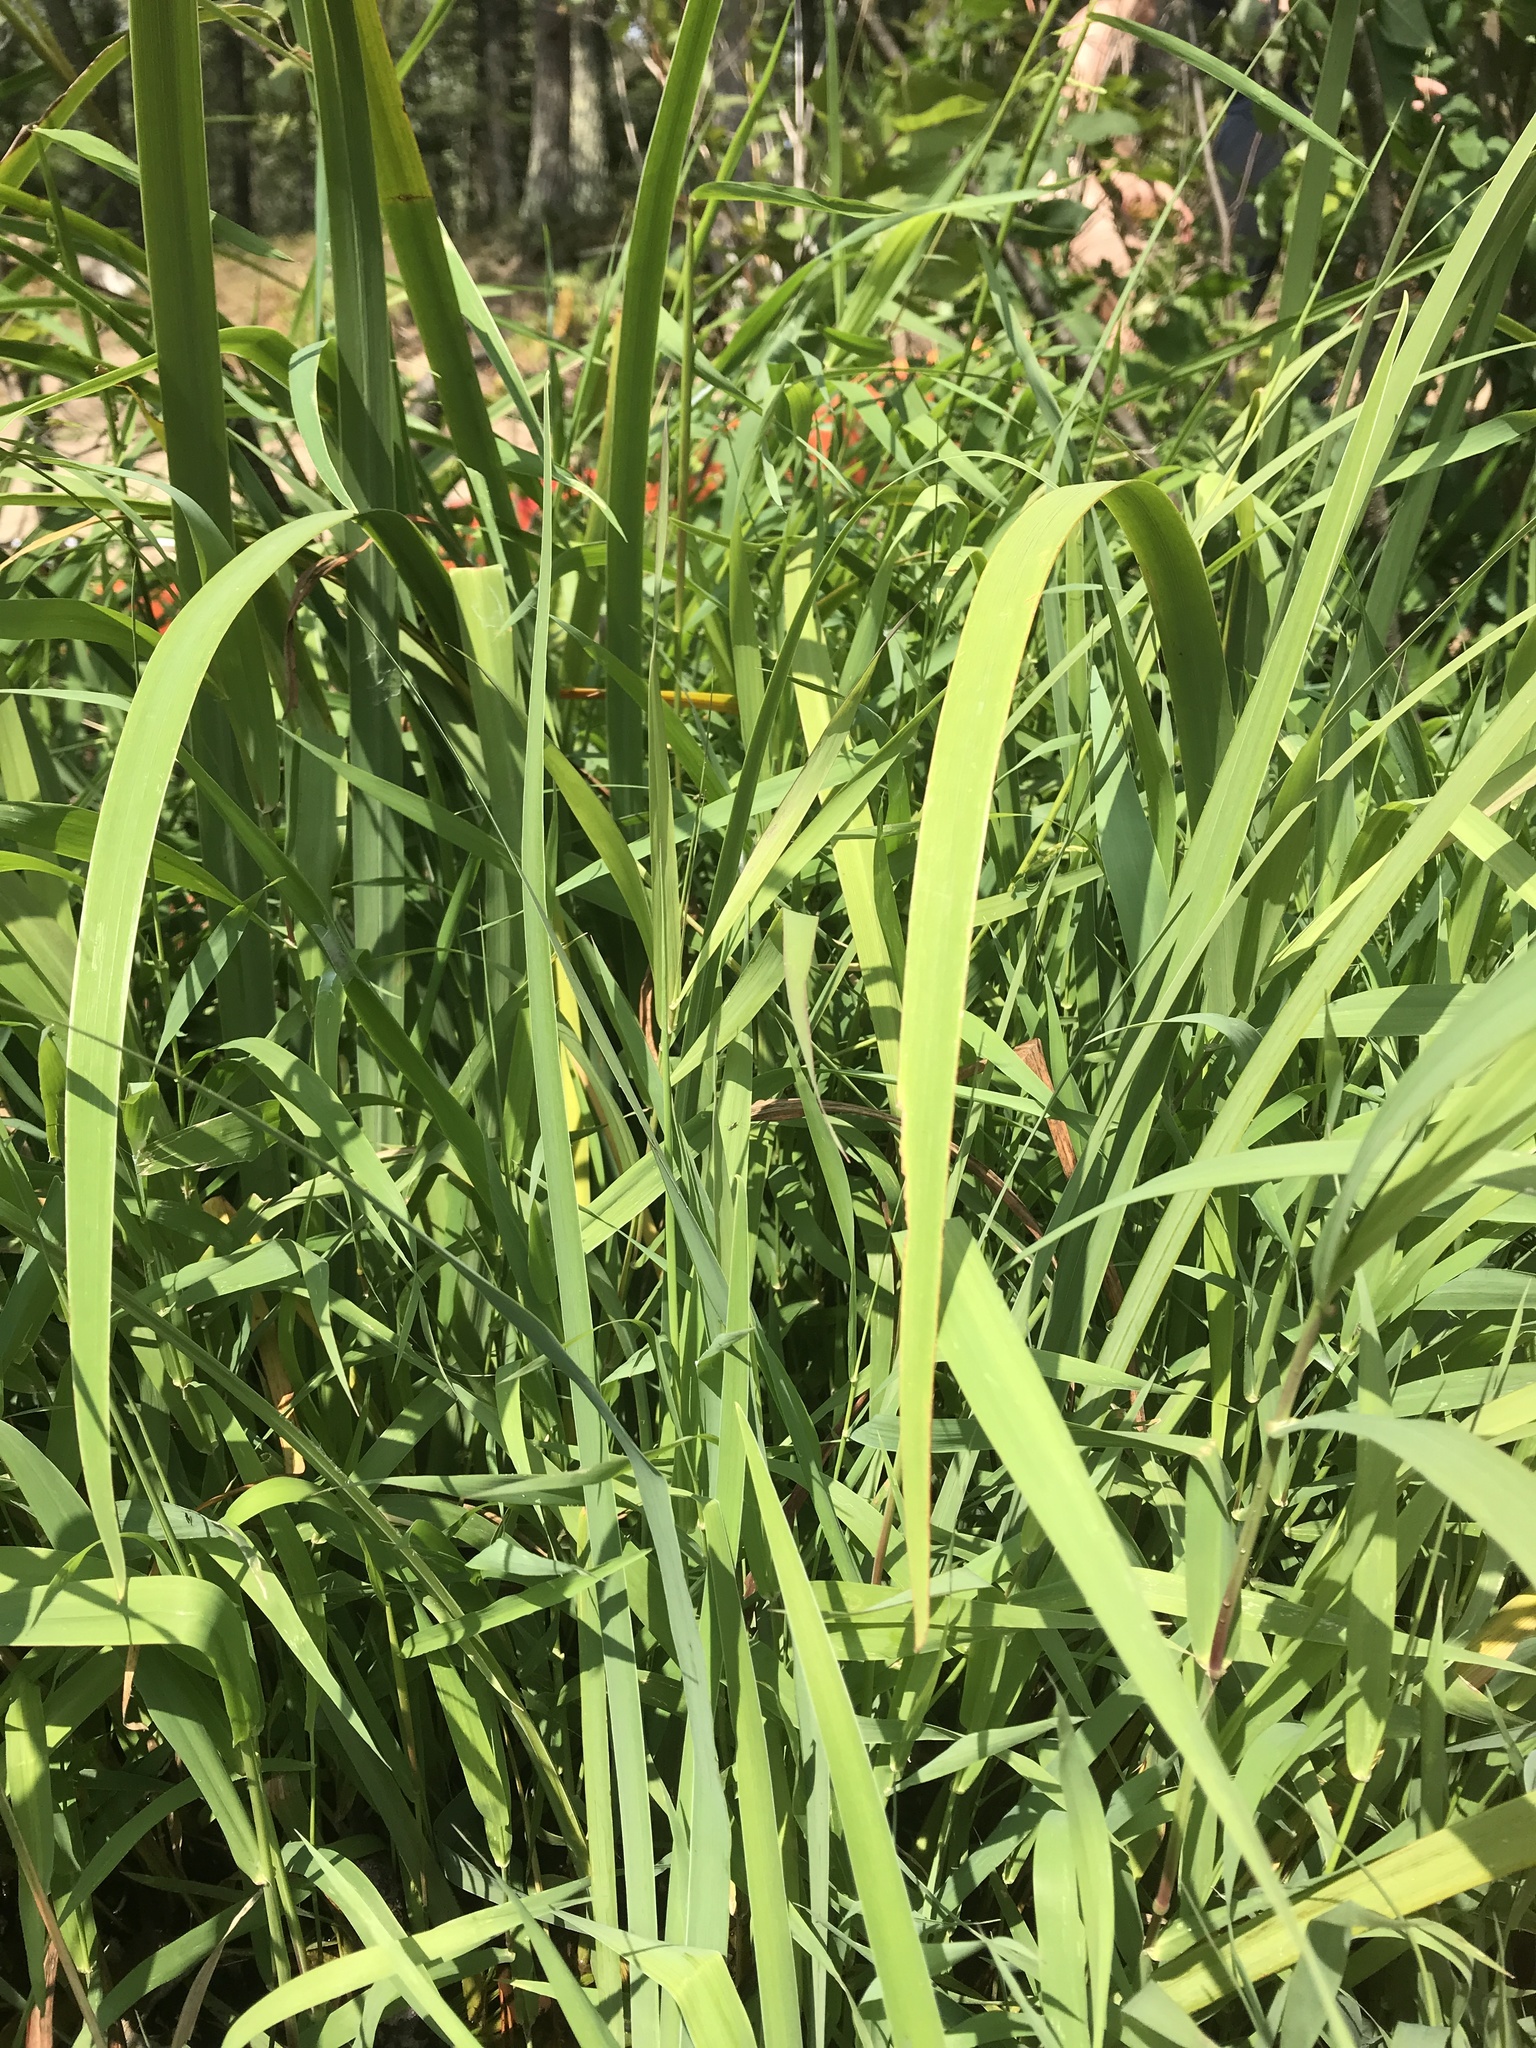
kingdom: Plantae
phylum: Tracheophyta
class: Liliopsida
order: Asparagales
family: Iridaceae
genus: Iris
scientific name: Iris
